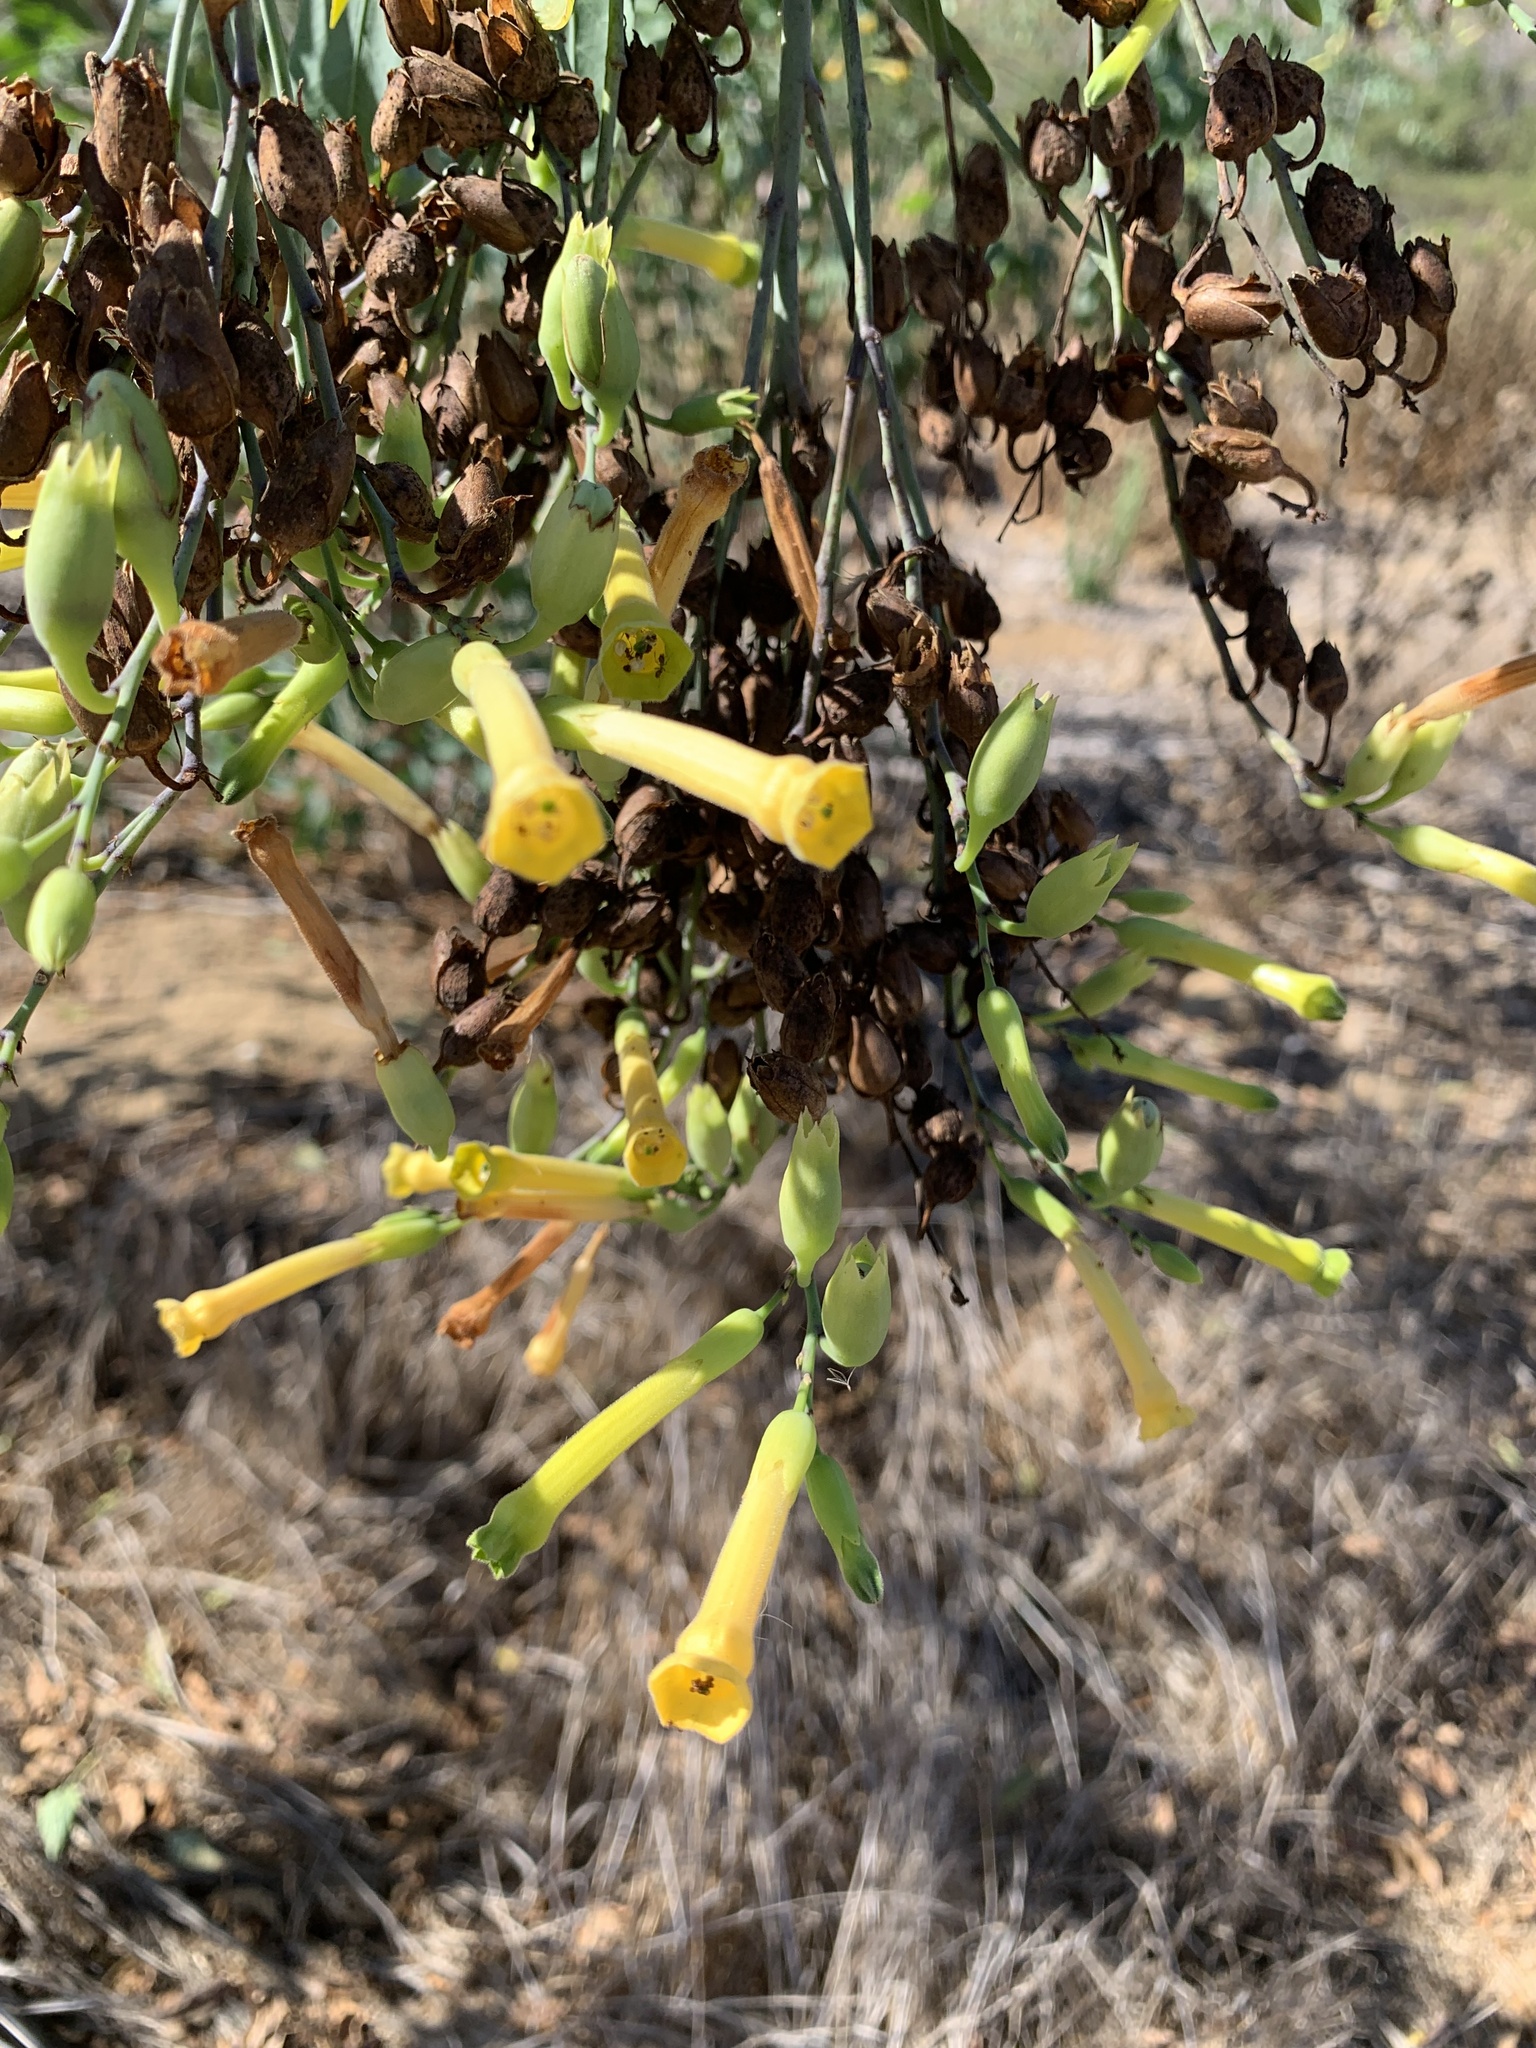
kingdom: Plantae
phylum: Tracheophyta
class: Magnoliopsida
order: Solanales
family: Solanaceae
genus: Nicotiana
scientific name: Nicotiana glauca
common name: Tree tobacco
